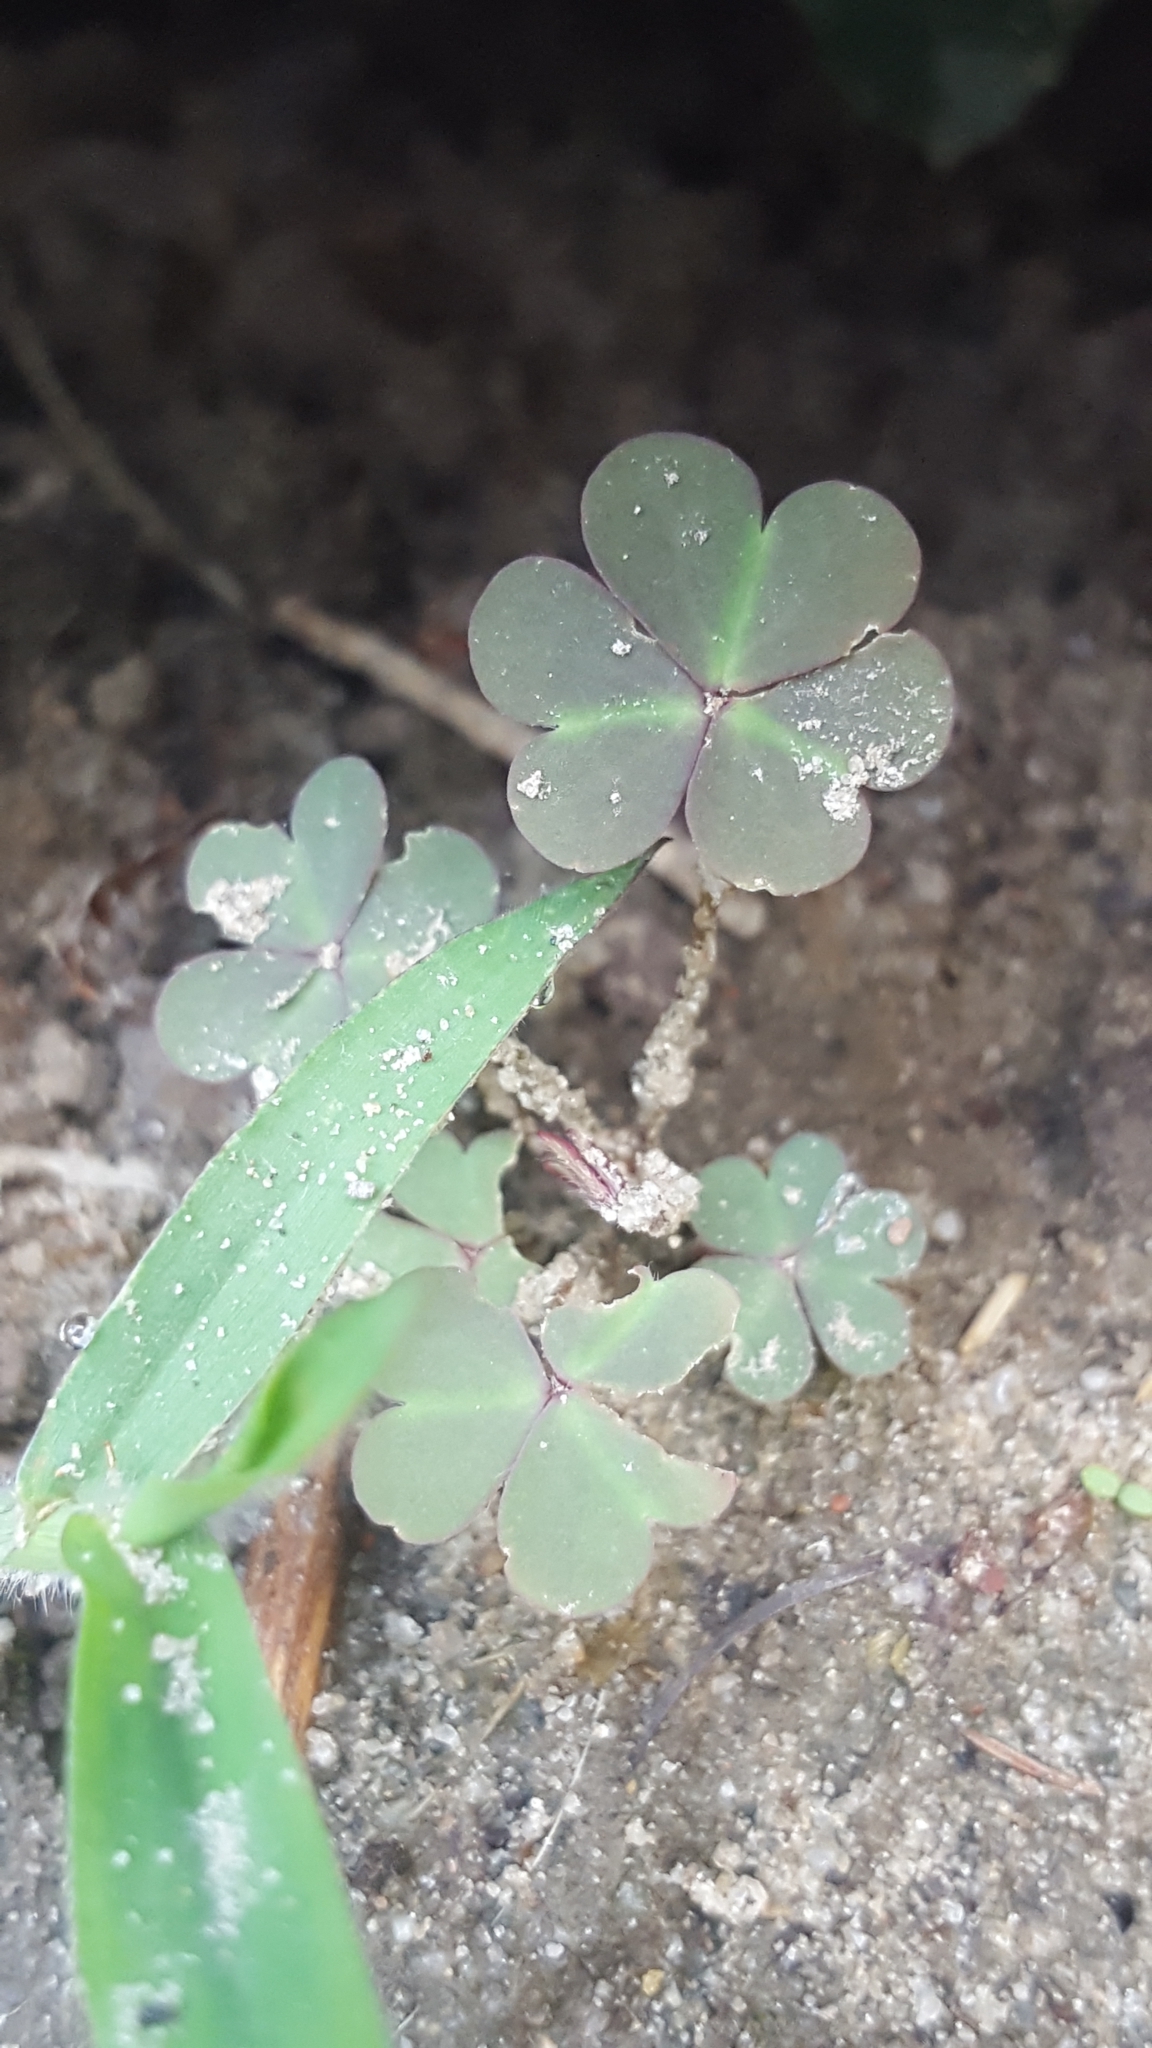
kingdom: Plantae
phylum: Tracheophyta
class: Magnoliopsida
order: Oxalidales
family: Oxalidaceae
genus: Oxalis
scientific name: Oxalis corniculata
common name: Procumbent yellow-sorrel
